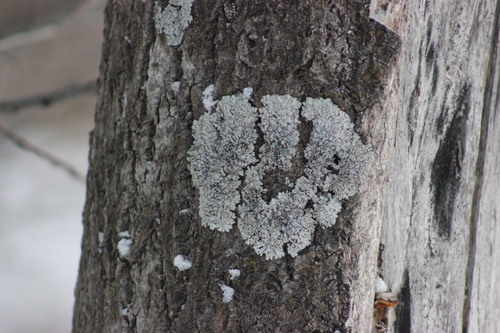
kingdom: Fungi
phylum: Ascomycota
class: Lecanoromycetes
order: Caliciales
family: Physciaceae
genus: Physcia
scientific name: Physcia aipolia
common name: Hoary rosette lichen
